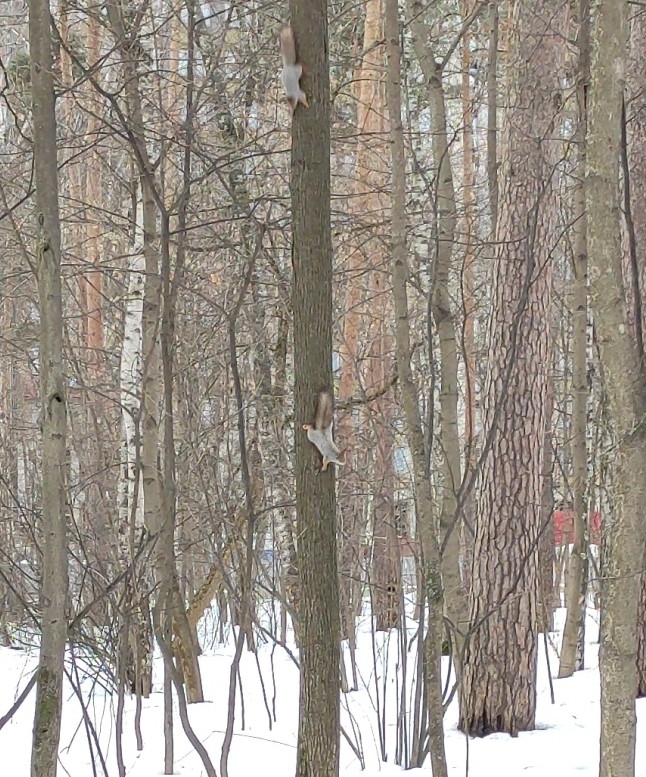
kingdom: Animalia
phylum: Chordata
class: Mammalia
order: Rodentia
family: Sciuridae
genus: Sciurus
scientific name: Sciurus vulgaris
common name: Eurasian red squirrel
